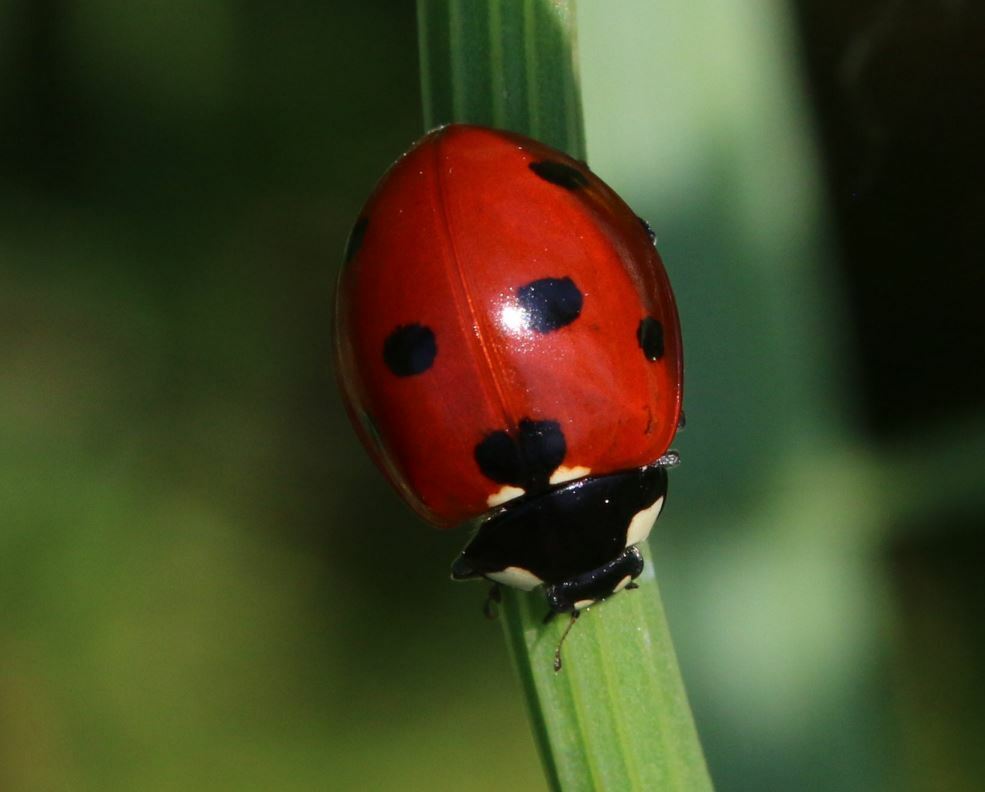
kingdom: Animalia
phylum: Arthropoda
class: Insecta
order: Coleoptera
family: Coccinellidae
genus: Coccinella
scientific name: Coccinella septempunctata
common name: Sevenspotted lady beetle
